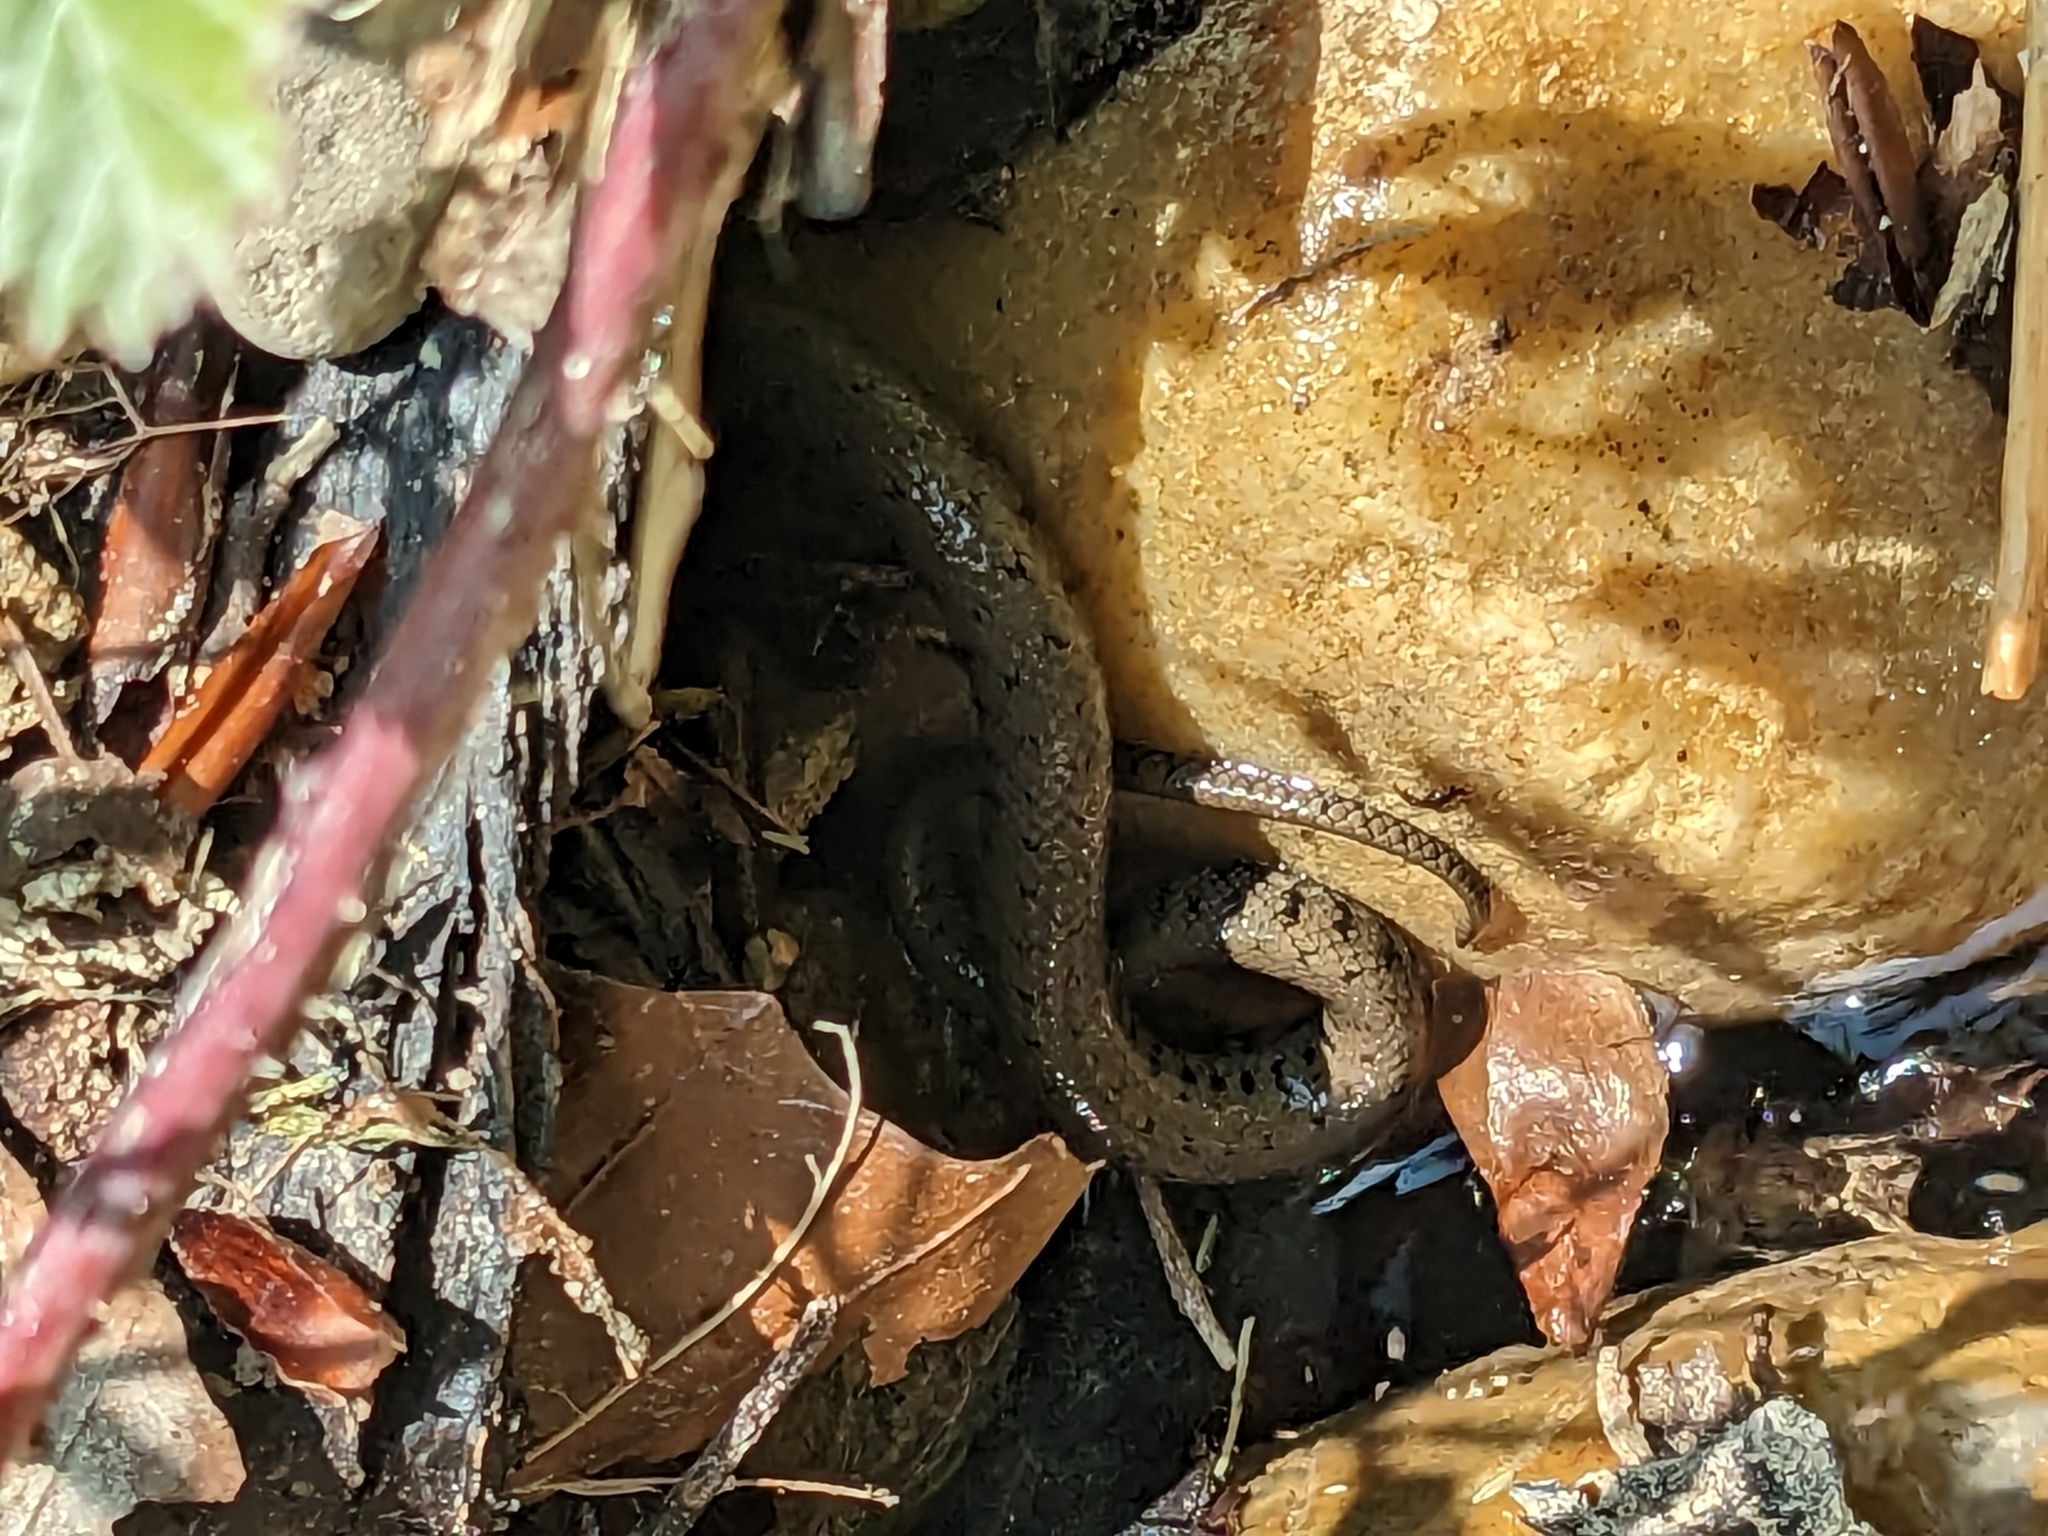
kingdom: Animalia
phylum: Chordata
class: Squamata
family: Colubridae
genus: Natrix
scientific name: Natrix helvetica
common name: Banded grass snake
